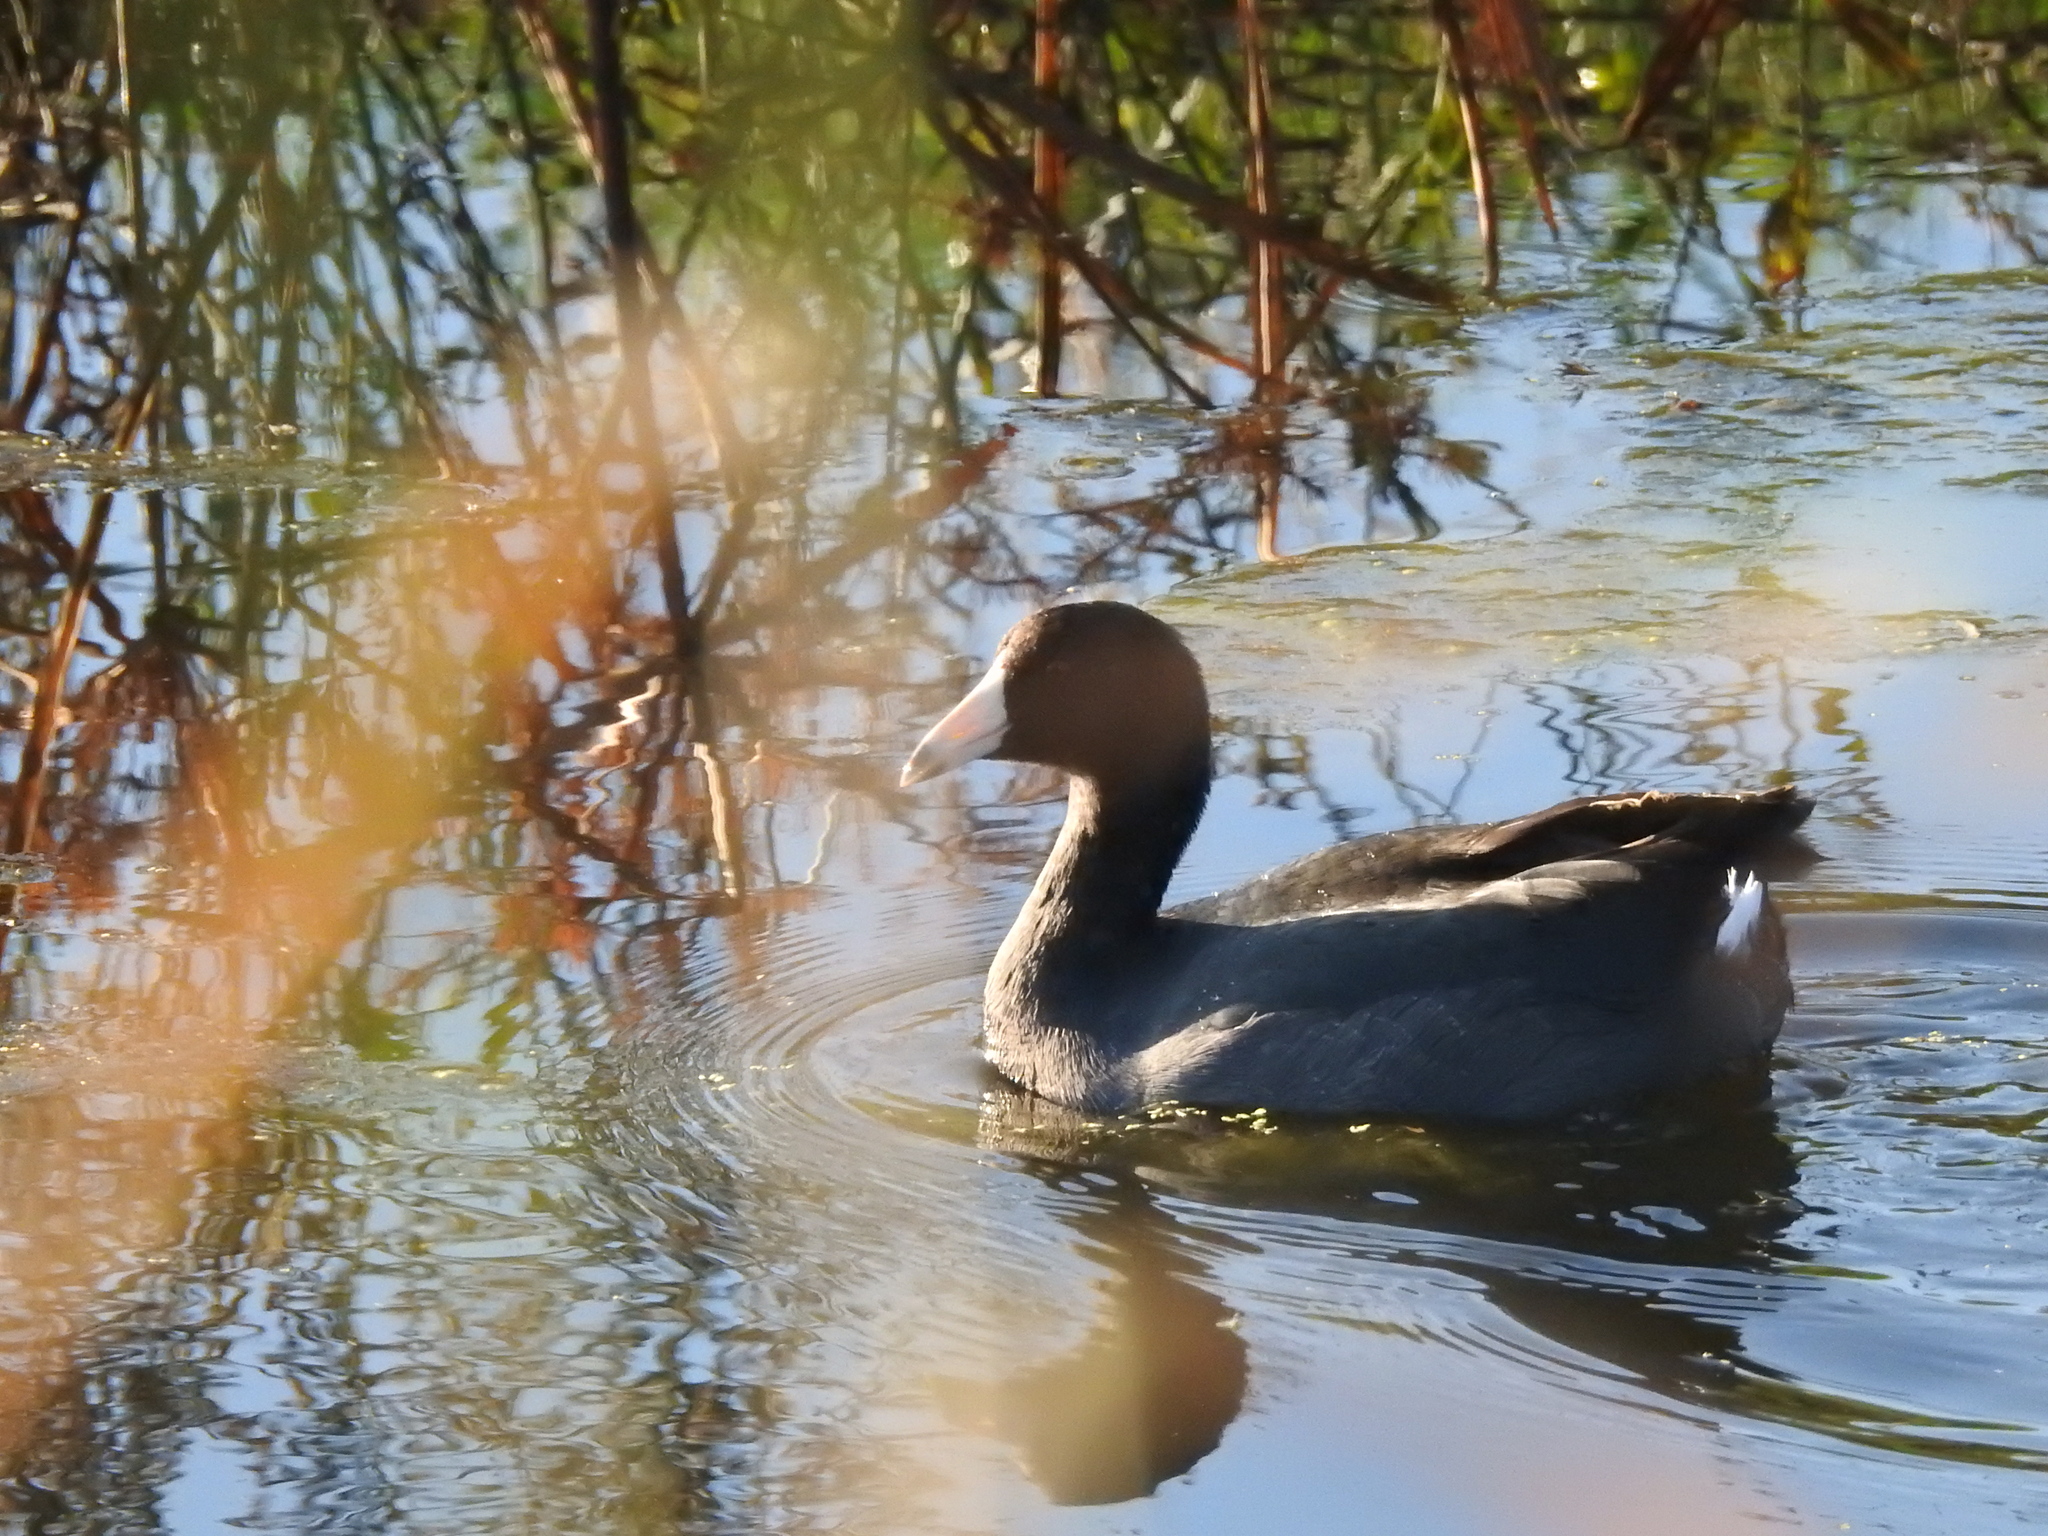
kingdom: Animalia
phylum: Chordata
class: Aves
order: Gruiformes
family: Rallidae
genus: Fulica
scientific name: Fulica americana
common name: American coot
